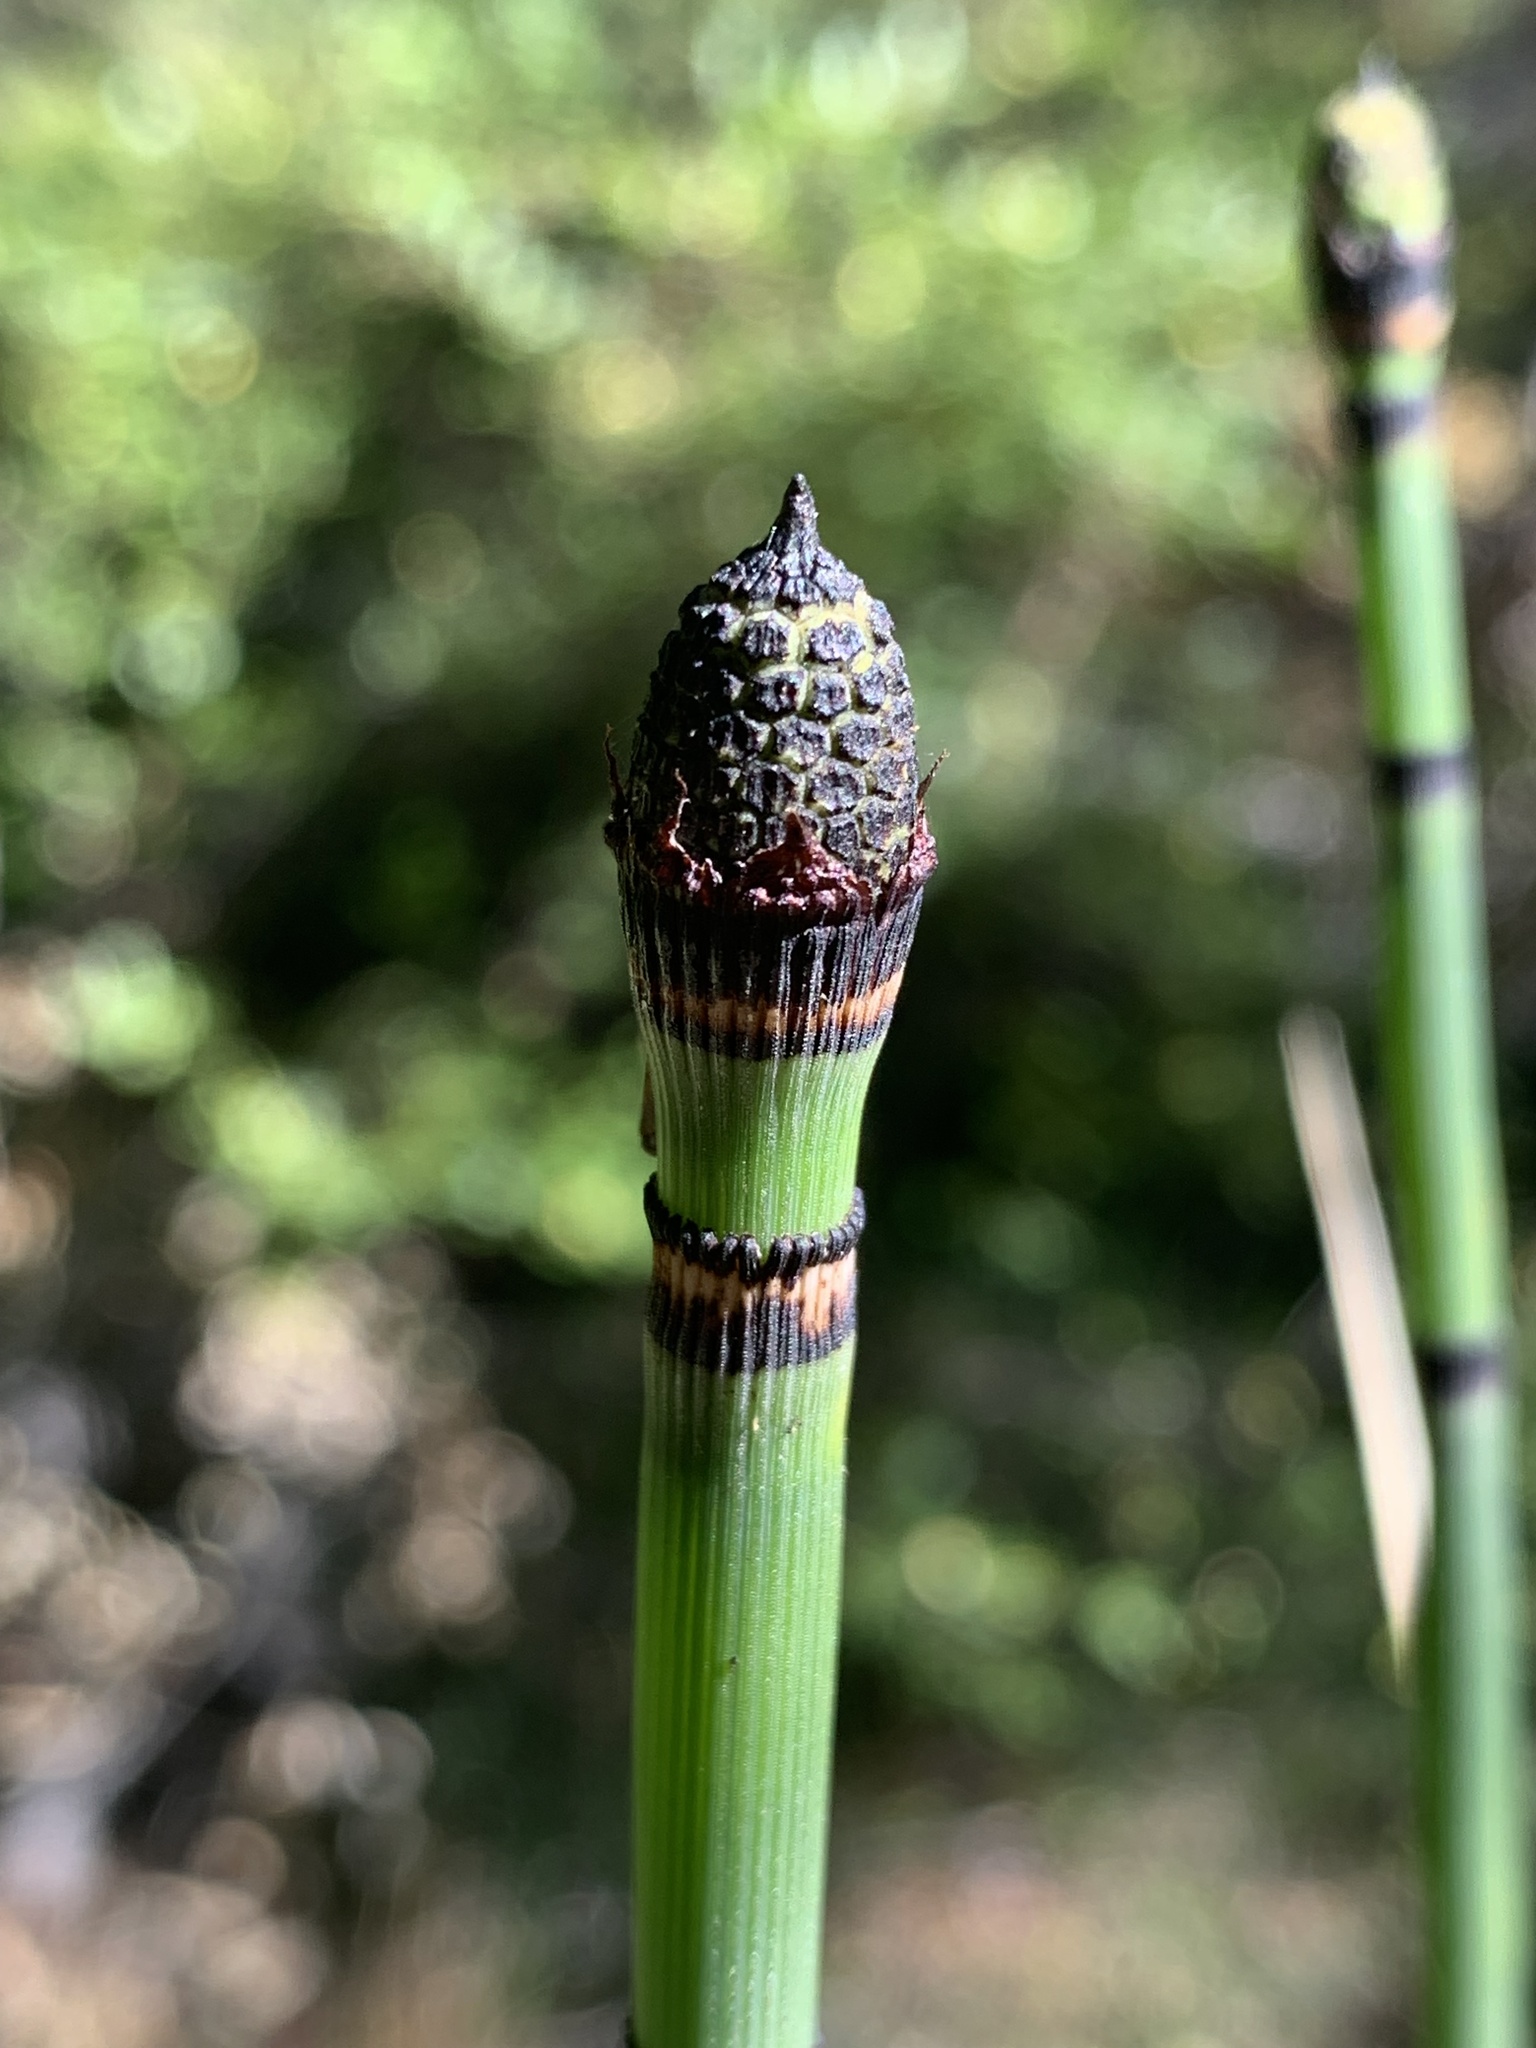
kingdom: Plantae
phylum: Tracheophyta
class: Polypodiopsida
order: Equisetales
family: Equisetaceae
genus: Equisetum
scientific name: Equisetum hyemale
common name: Rough horsetail
